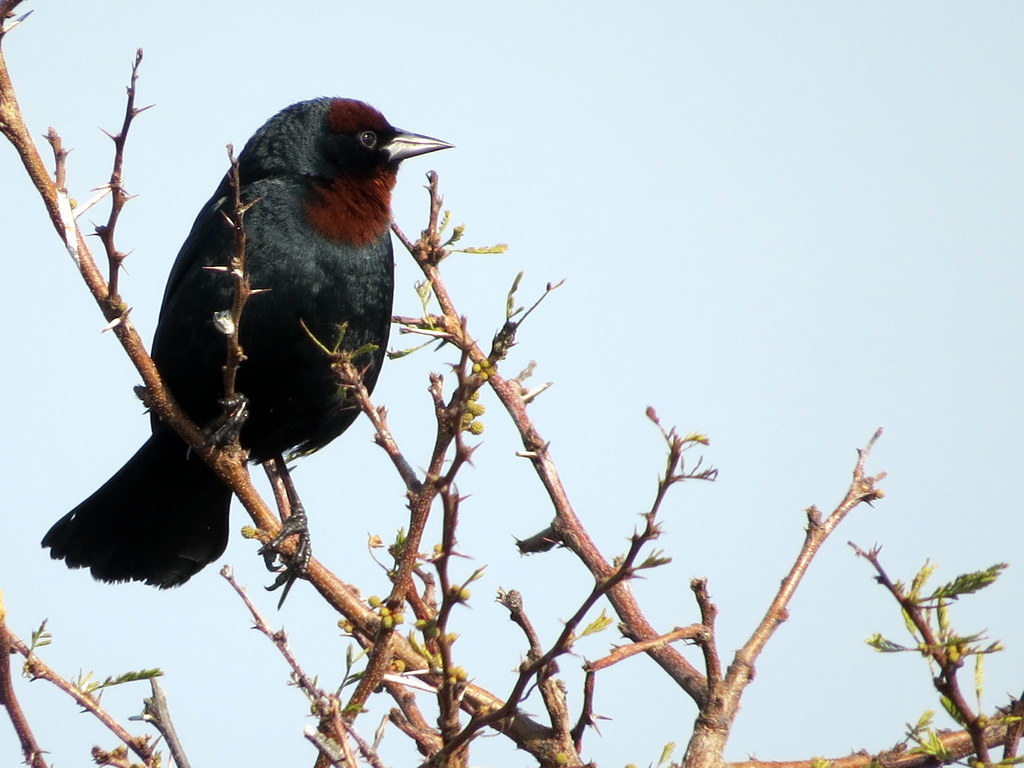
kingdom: Animalia
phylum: Chordata
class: Aves
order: Passeriformes
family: Icteridae
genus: Chrysomus
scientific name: Chrysomus ruficapillus
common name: Chestnut-capped blackbird
